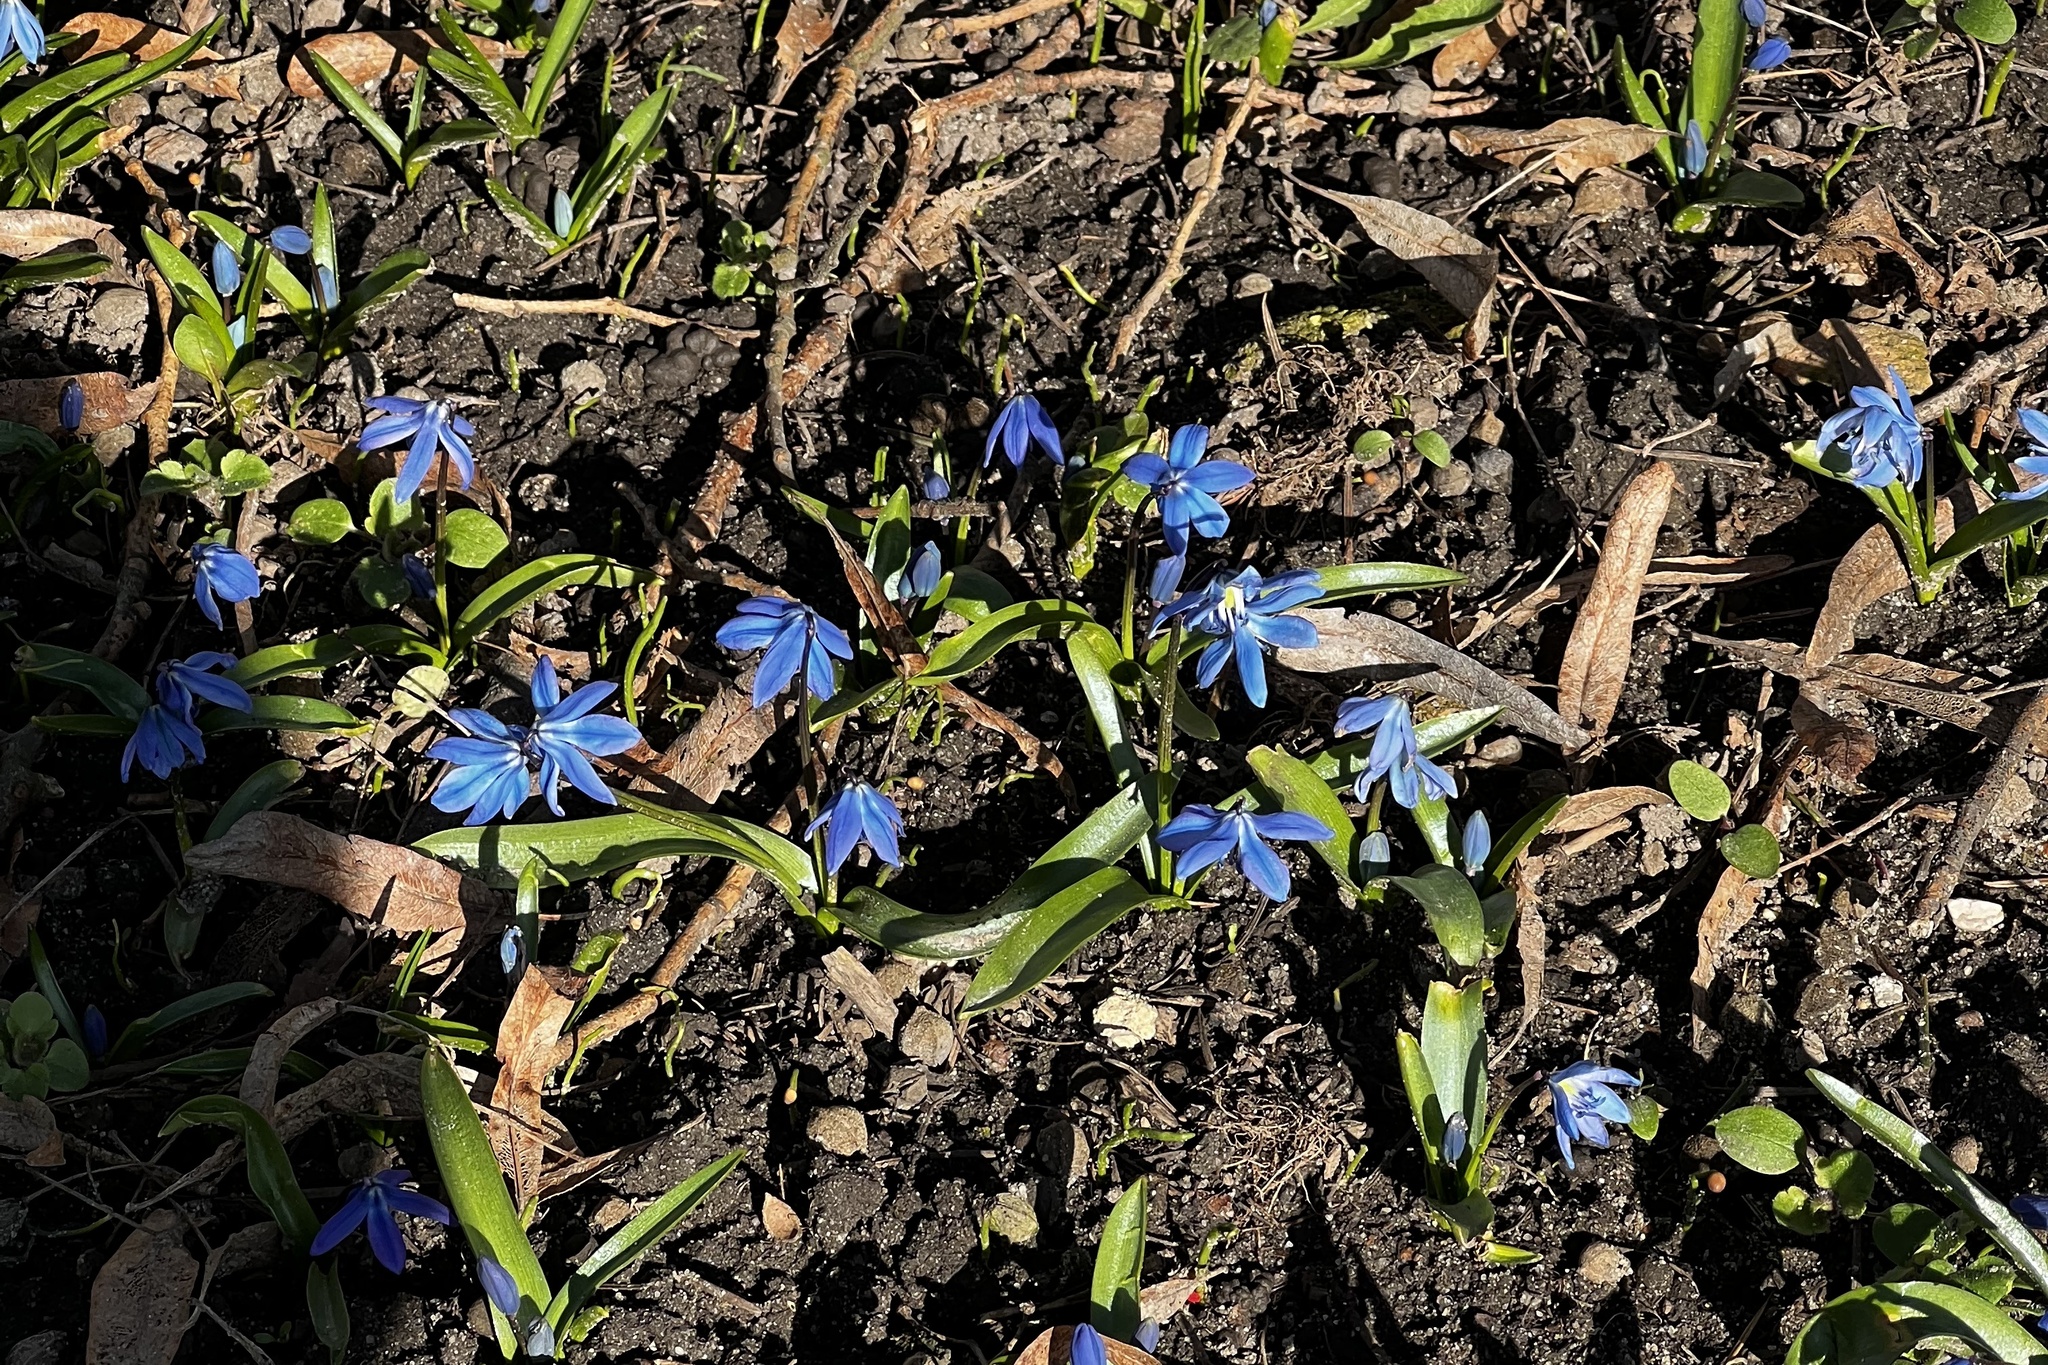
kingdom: Plantae
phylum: Tracheophyta
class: Liliopsida
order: Asparagales
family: Asparagaceae
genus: Scilla
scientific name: Scilla siberica
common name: Siberian squill
